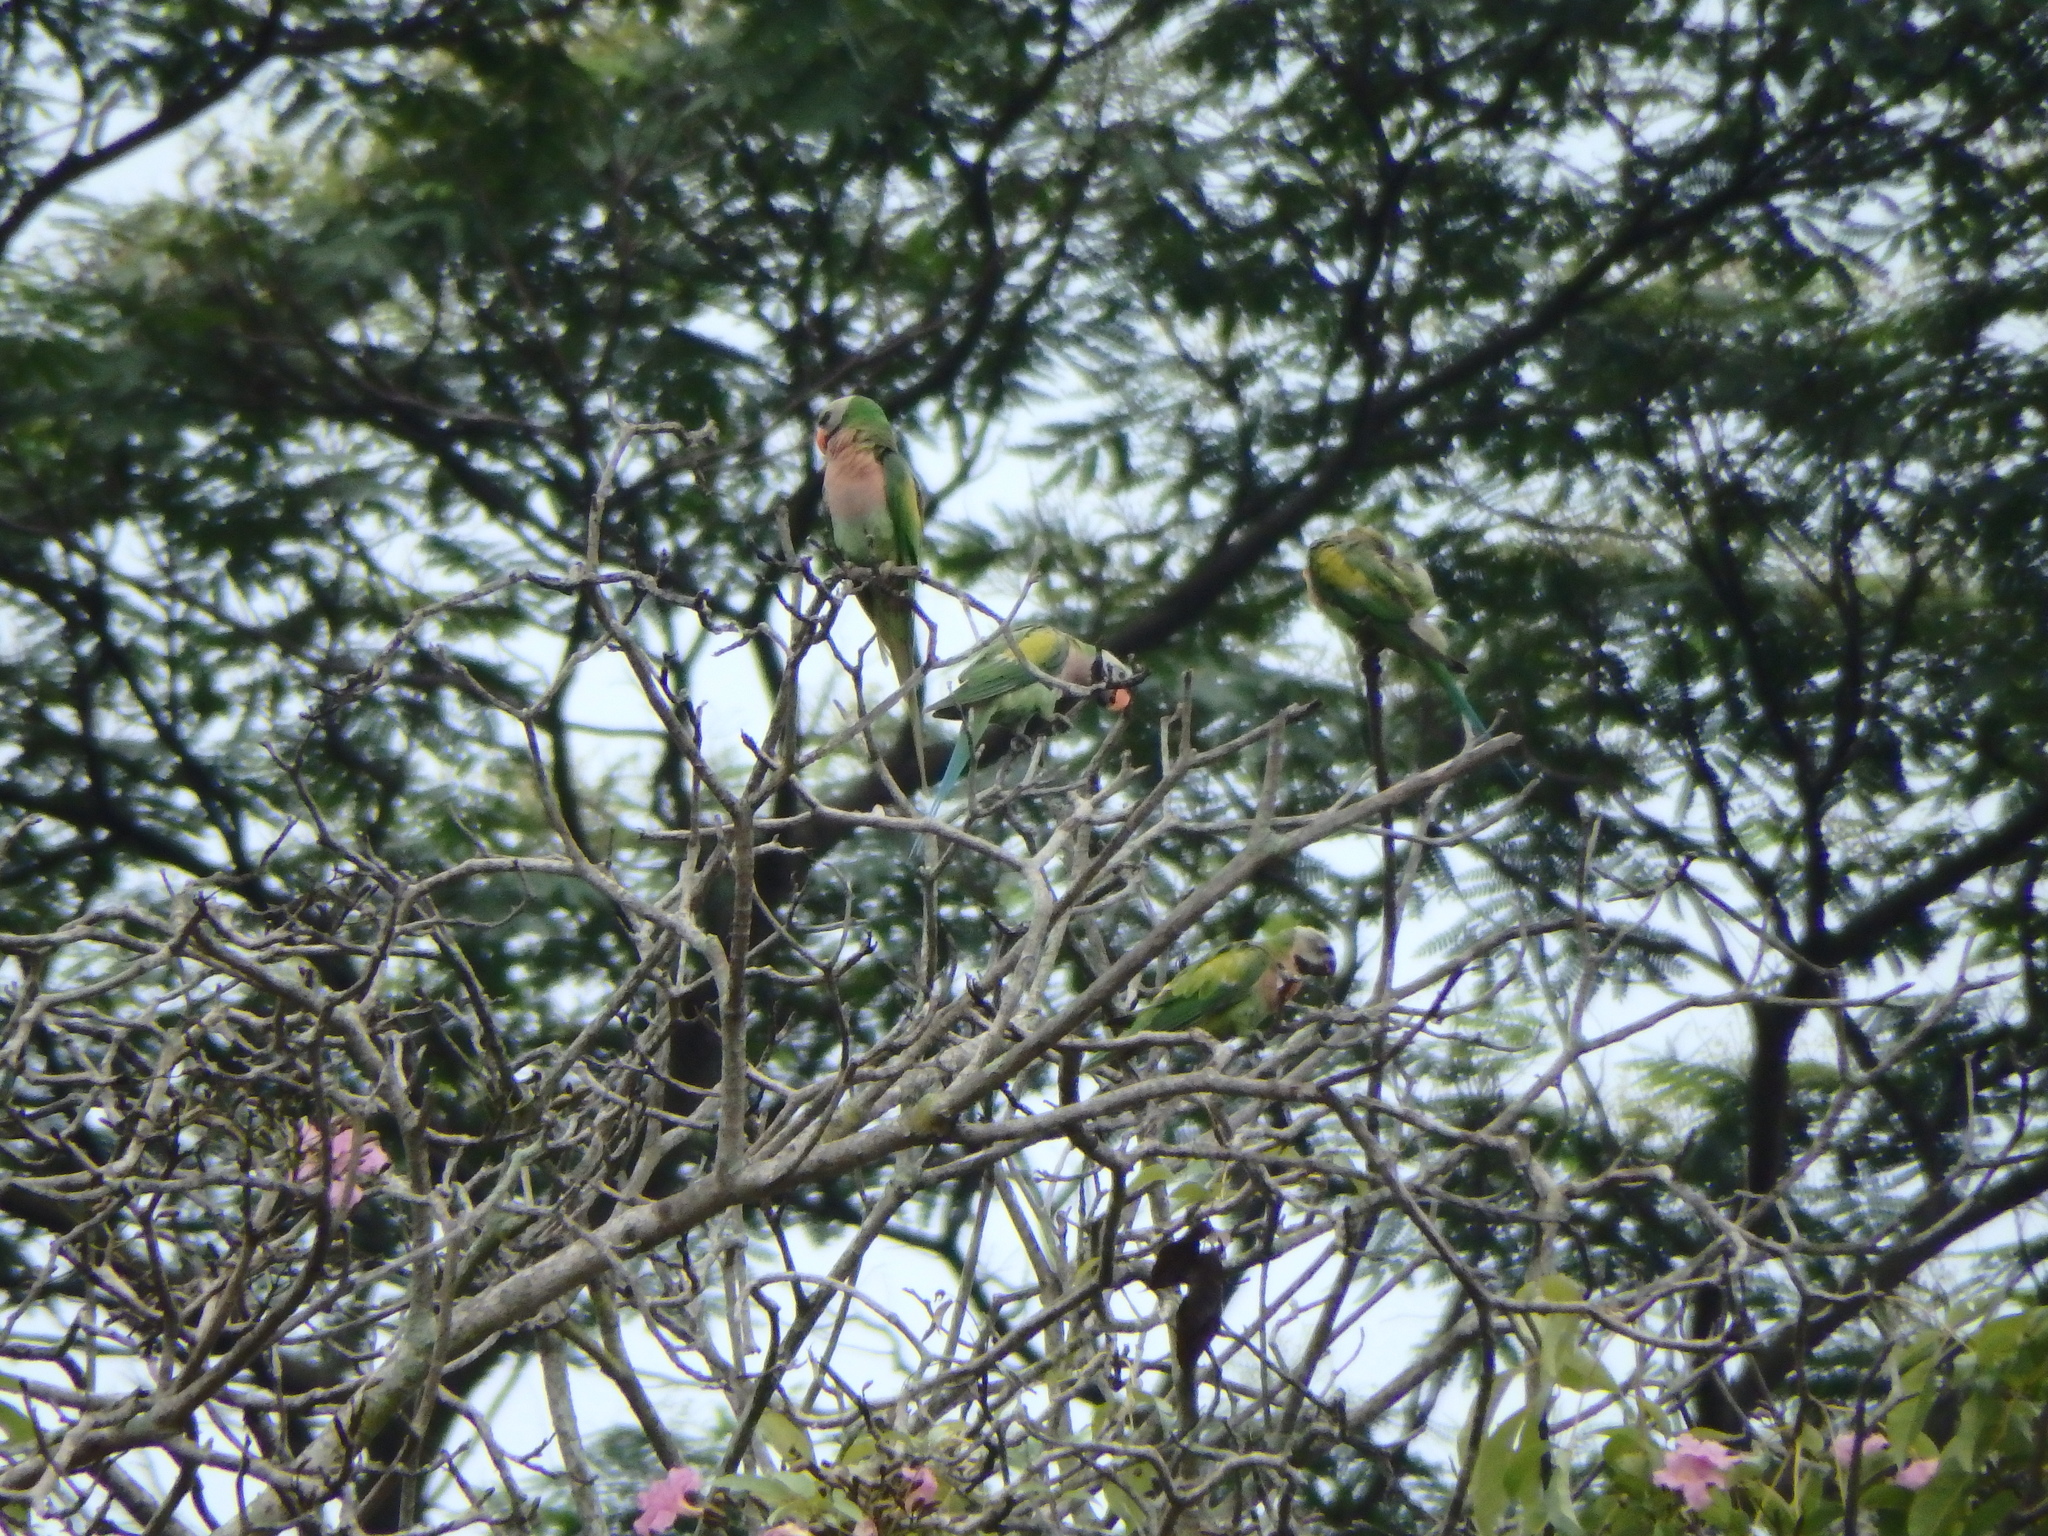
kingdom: Animalia
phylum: Chordata
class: Aves
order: Psittaciformes
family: Psittacidae
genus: Psittacula
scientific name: Psittacula alexandri
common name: Red-breasted parakeet
